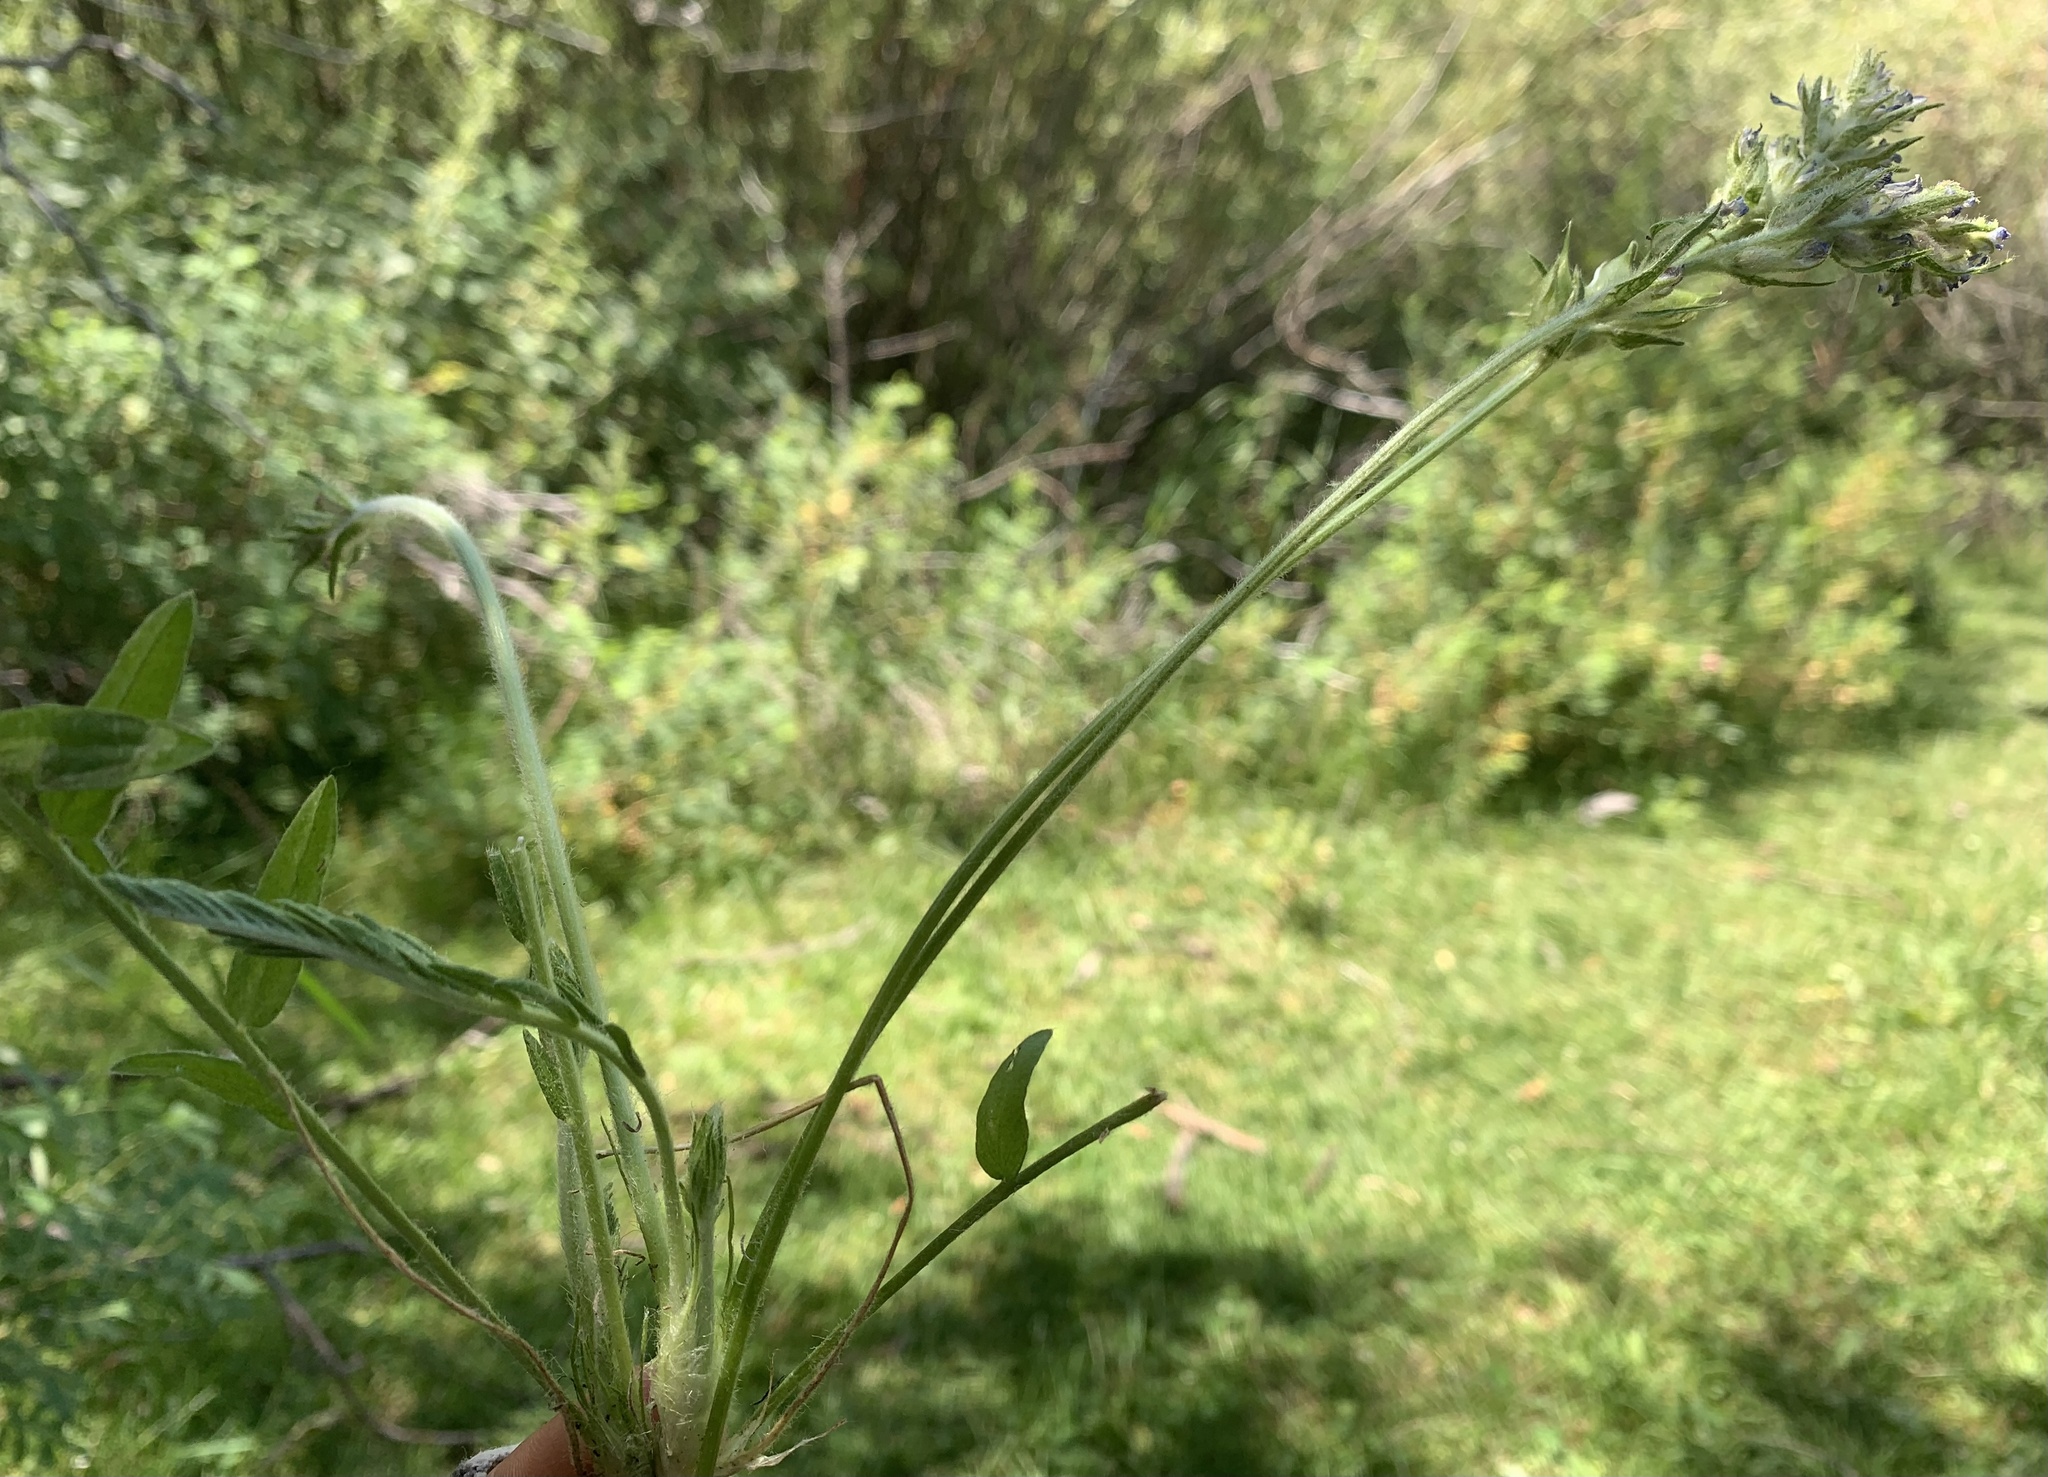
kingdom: Plantae
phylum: Tracheophyta
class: Magnoliopsida
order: Fabales
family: Fabaceae
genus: Oxytropis
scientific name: Oxytropis borealis
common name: Boreal locoweed
